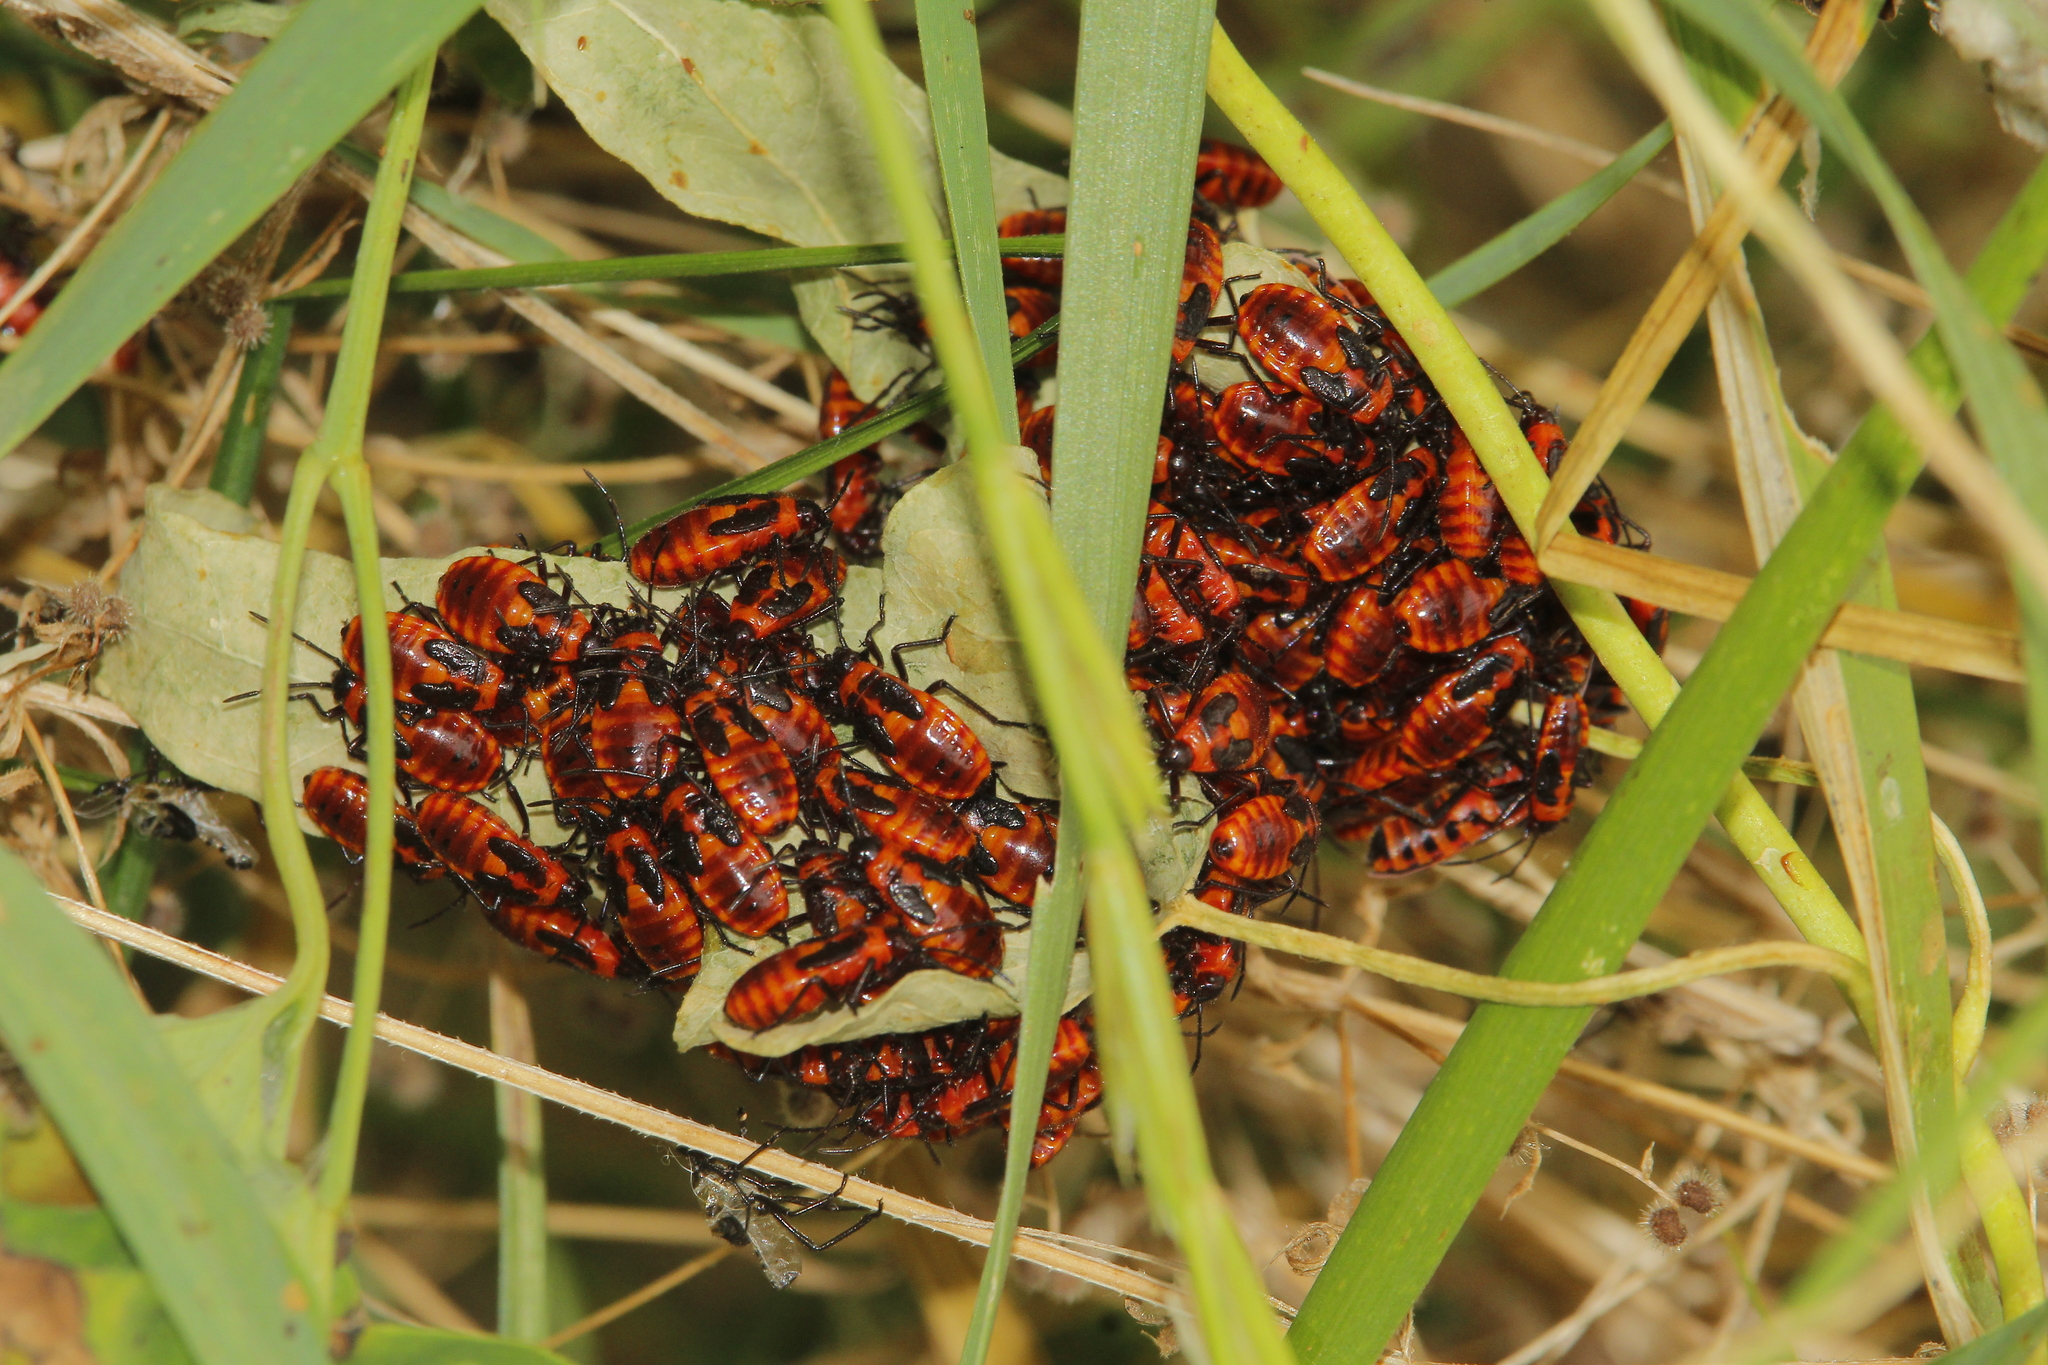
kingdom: Animalia
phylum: Arthropoda
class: Insecta
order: Hemiptera
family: Lygaeidae
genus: Tropidothorax
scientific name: Tropidothorax leucopterus
